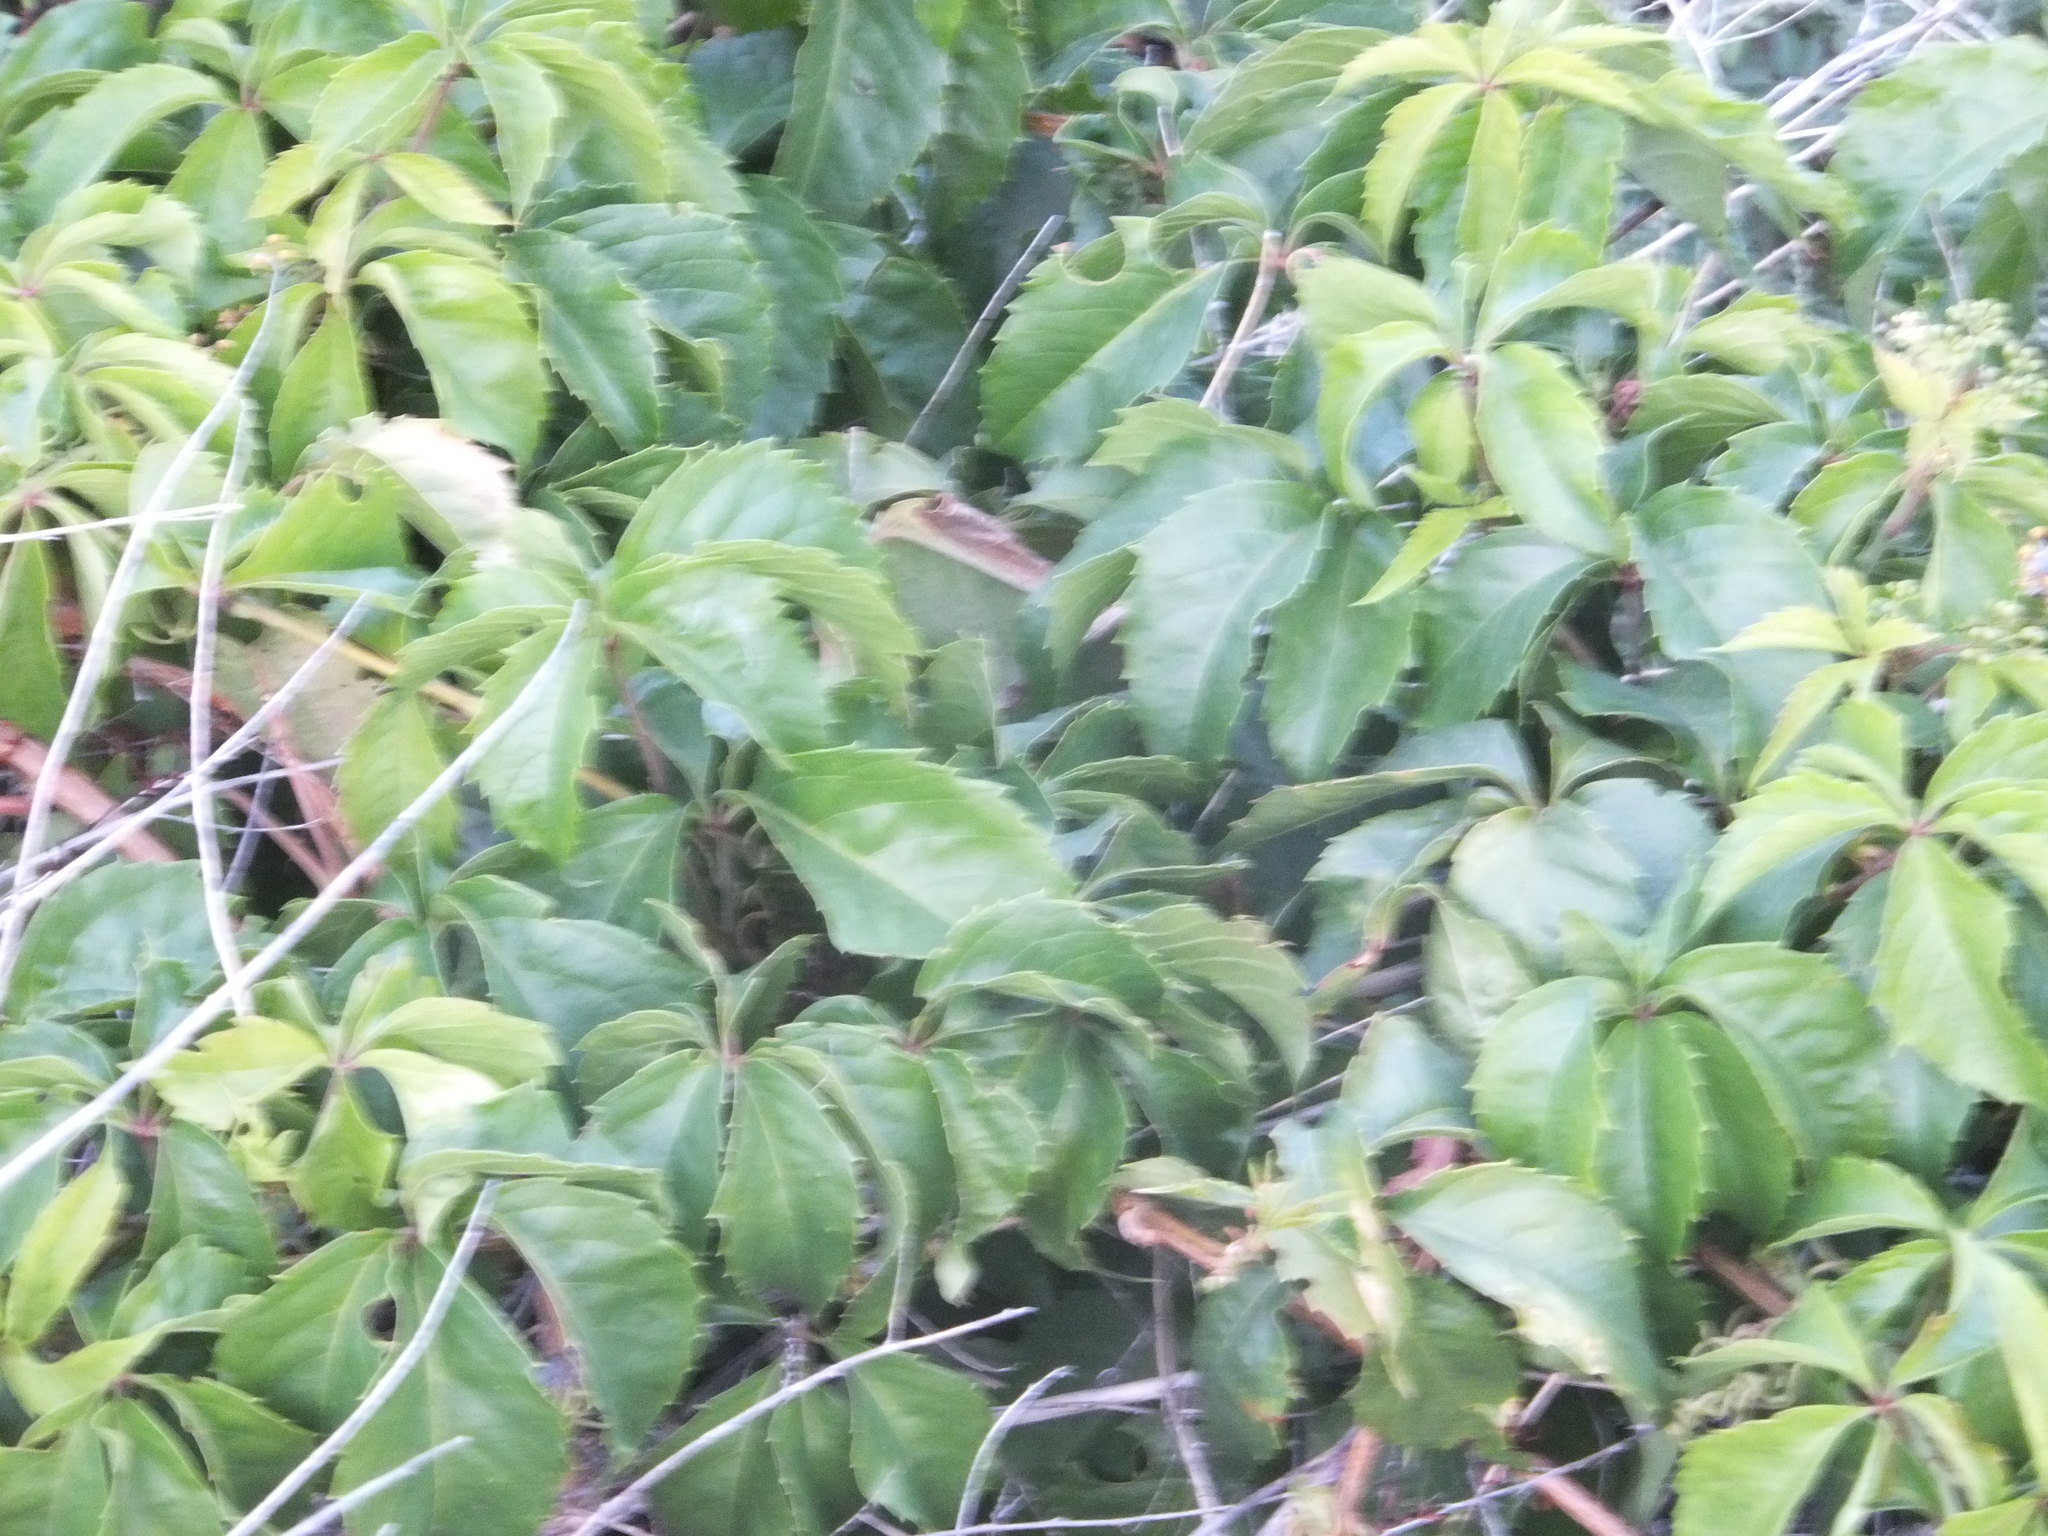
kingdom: Plantae
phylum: Tracheophyta
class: Magnoliopsida
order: Vitales
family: Vitaceae
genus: Parthenocissus
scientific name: Parthenocissus inserta
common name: False virginia-creeper
